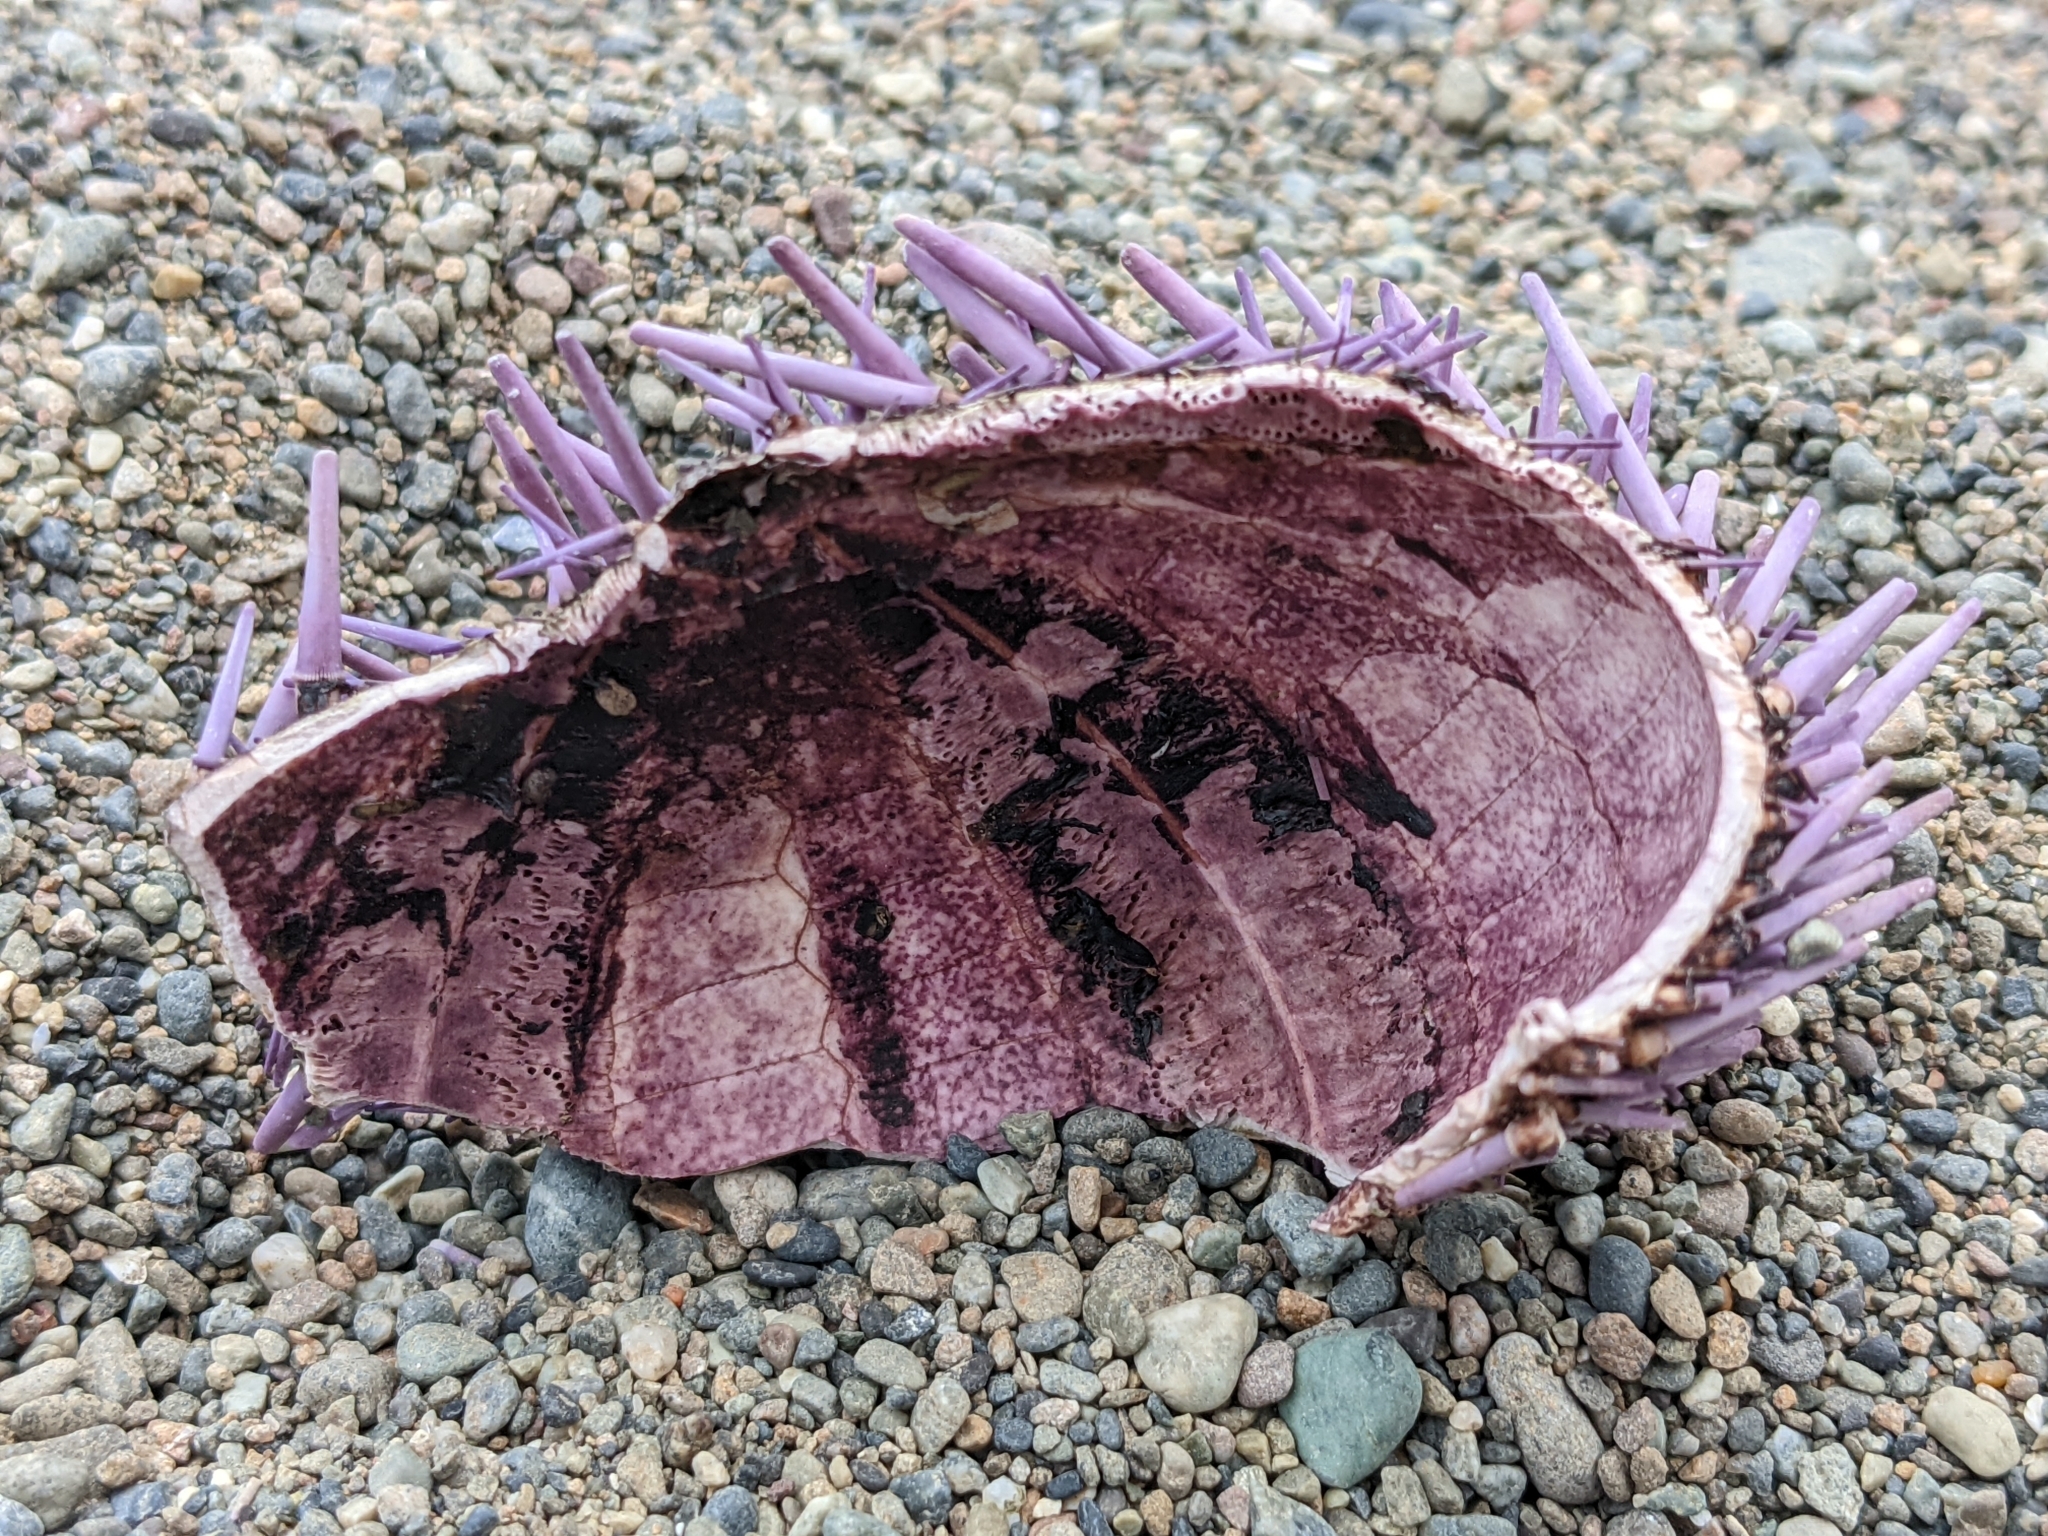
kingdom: Animalia
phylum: Echinodermata
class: Echinoidea
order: Camarodonta
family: Strongylocentrotidae
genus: Strongylocentrotus
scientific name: Strongylocentrotus purpuratus
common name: Purple sea urchin
